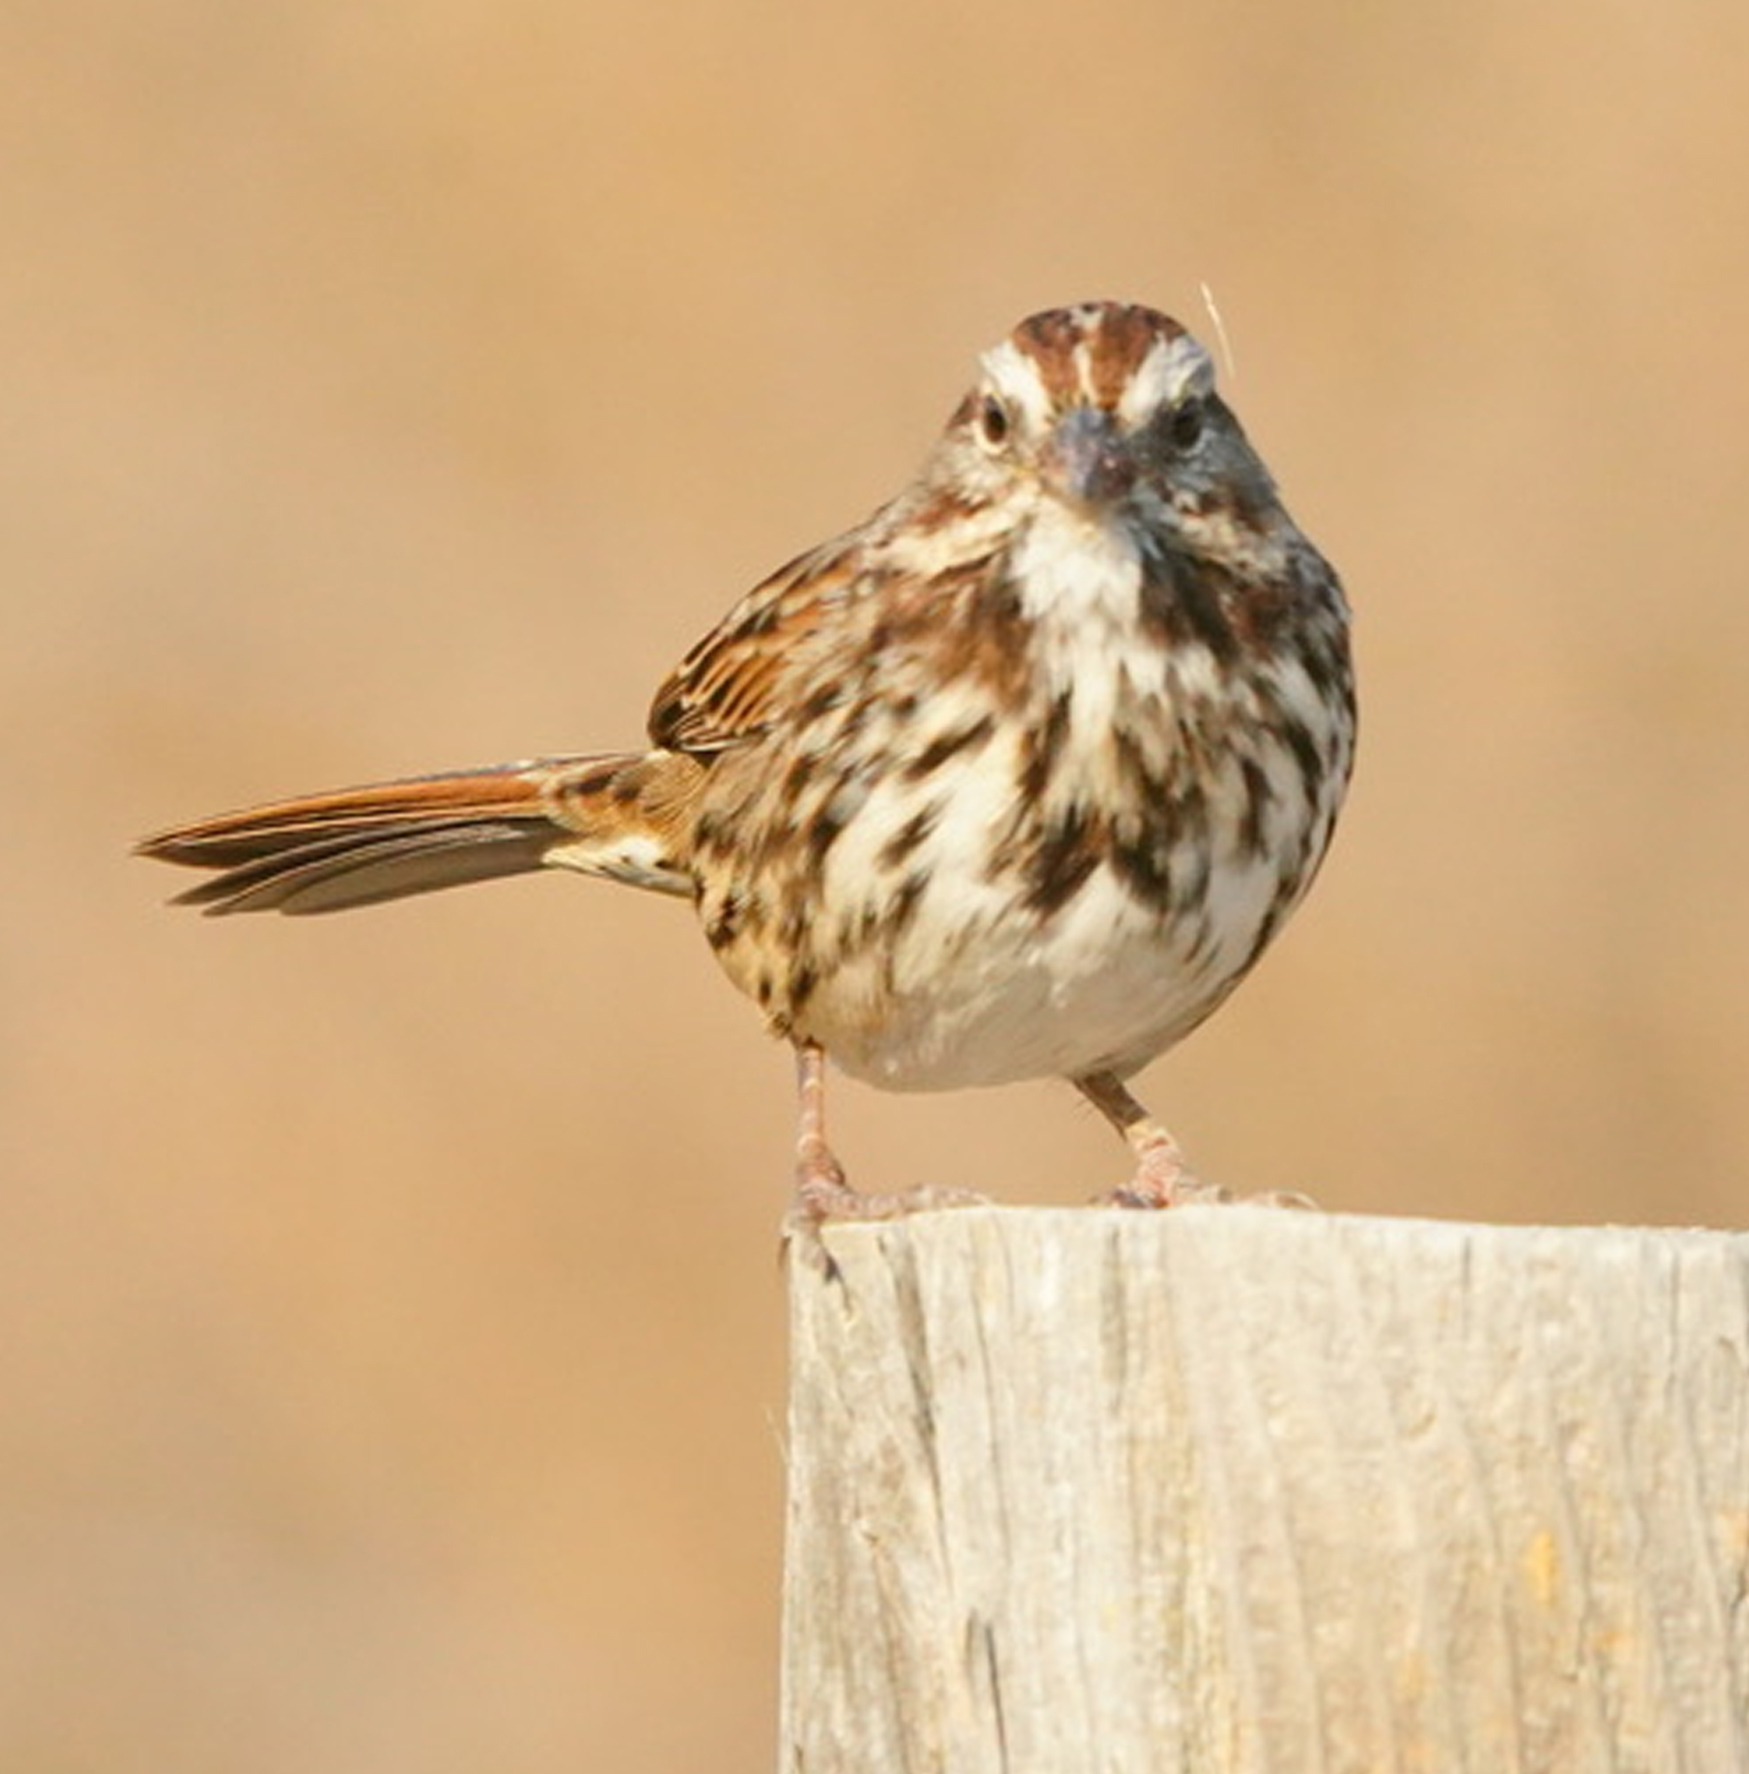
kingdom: Animalia
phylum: Chordata
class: Aves
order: Passeriformes
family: Passerellidae
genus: Melospiza
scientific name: Melospiza melodia
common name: Song sparrow
